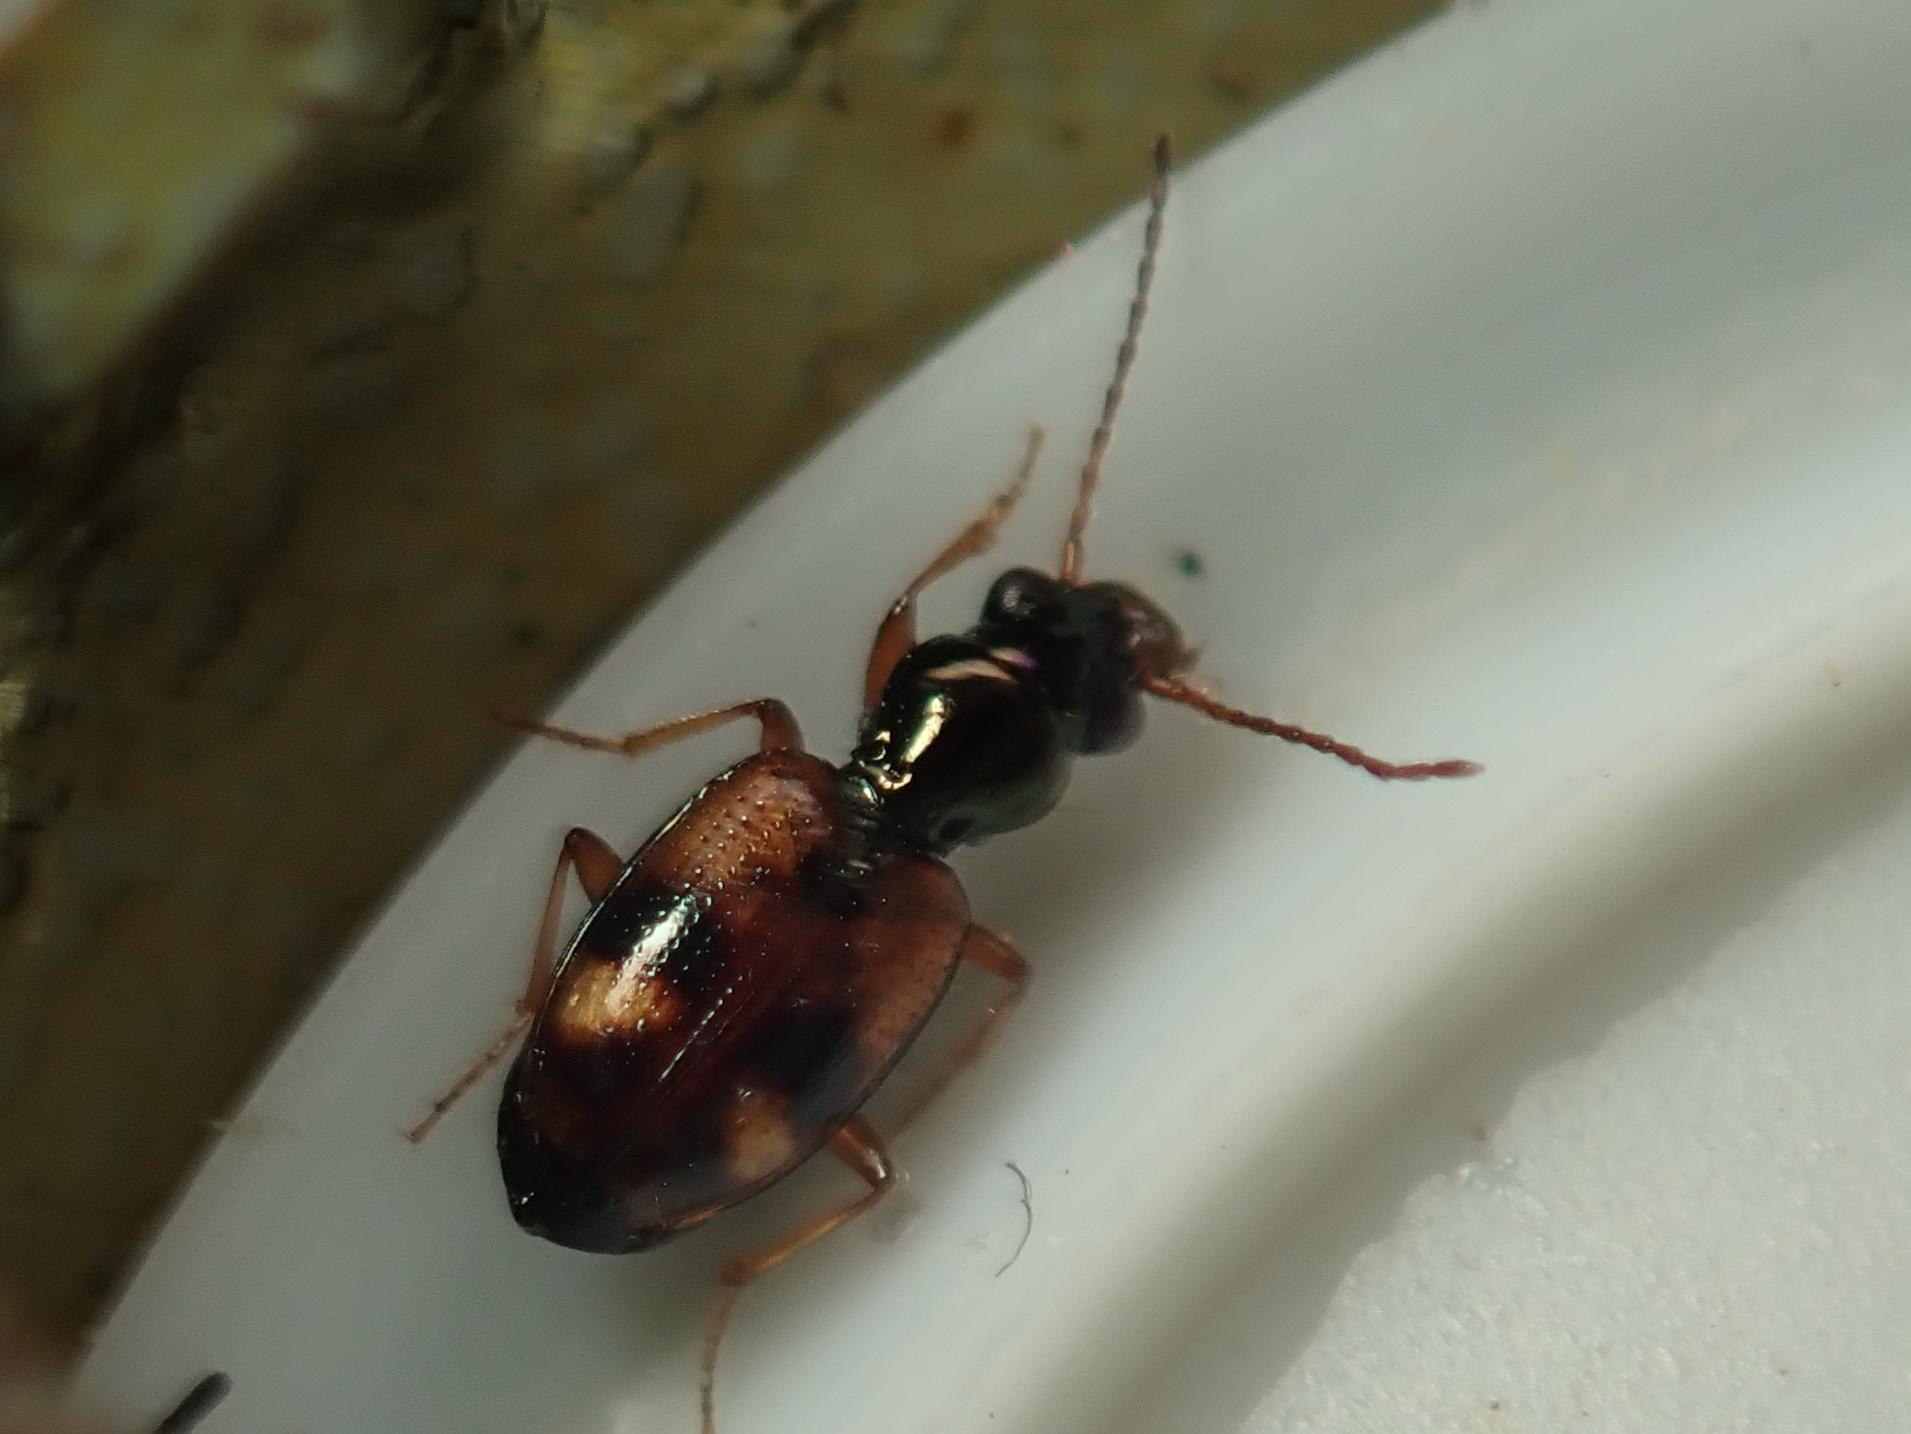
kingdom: Animalia
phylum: Arthropoda
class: Insecta
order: Coleoptera
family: Carabidae
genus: Bembidion
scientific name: Bembidion articulatum
